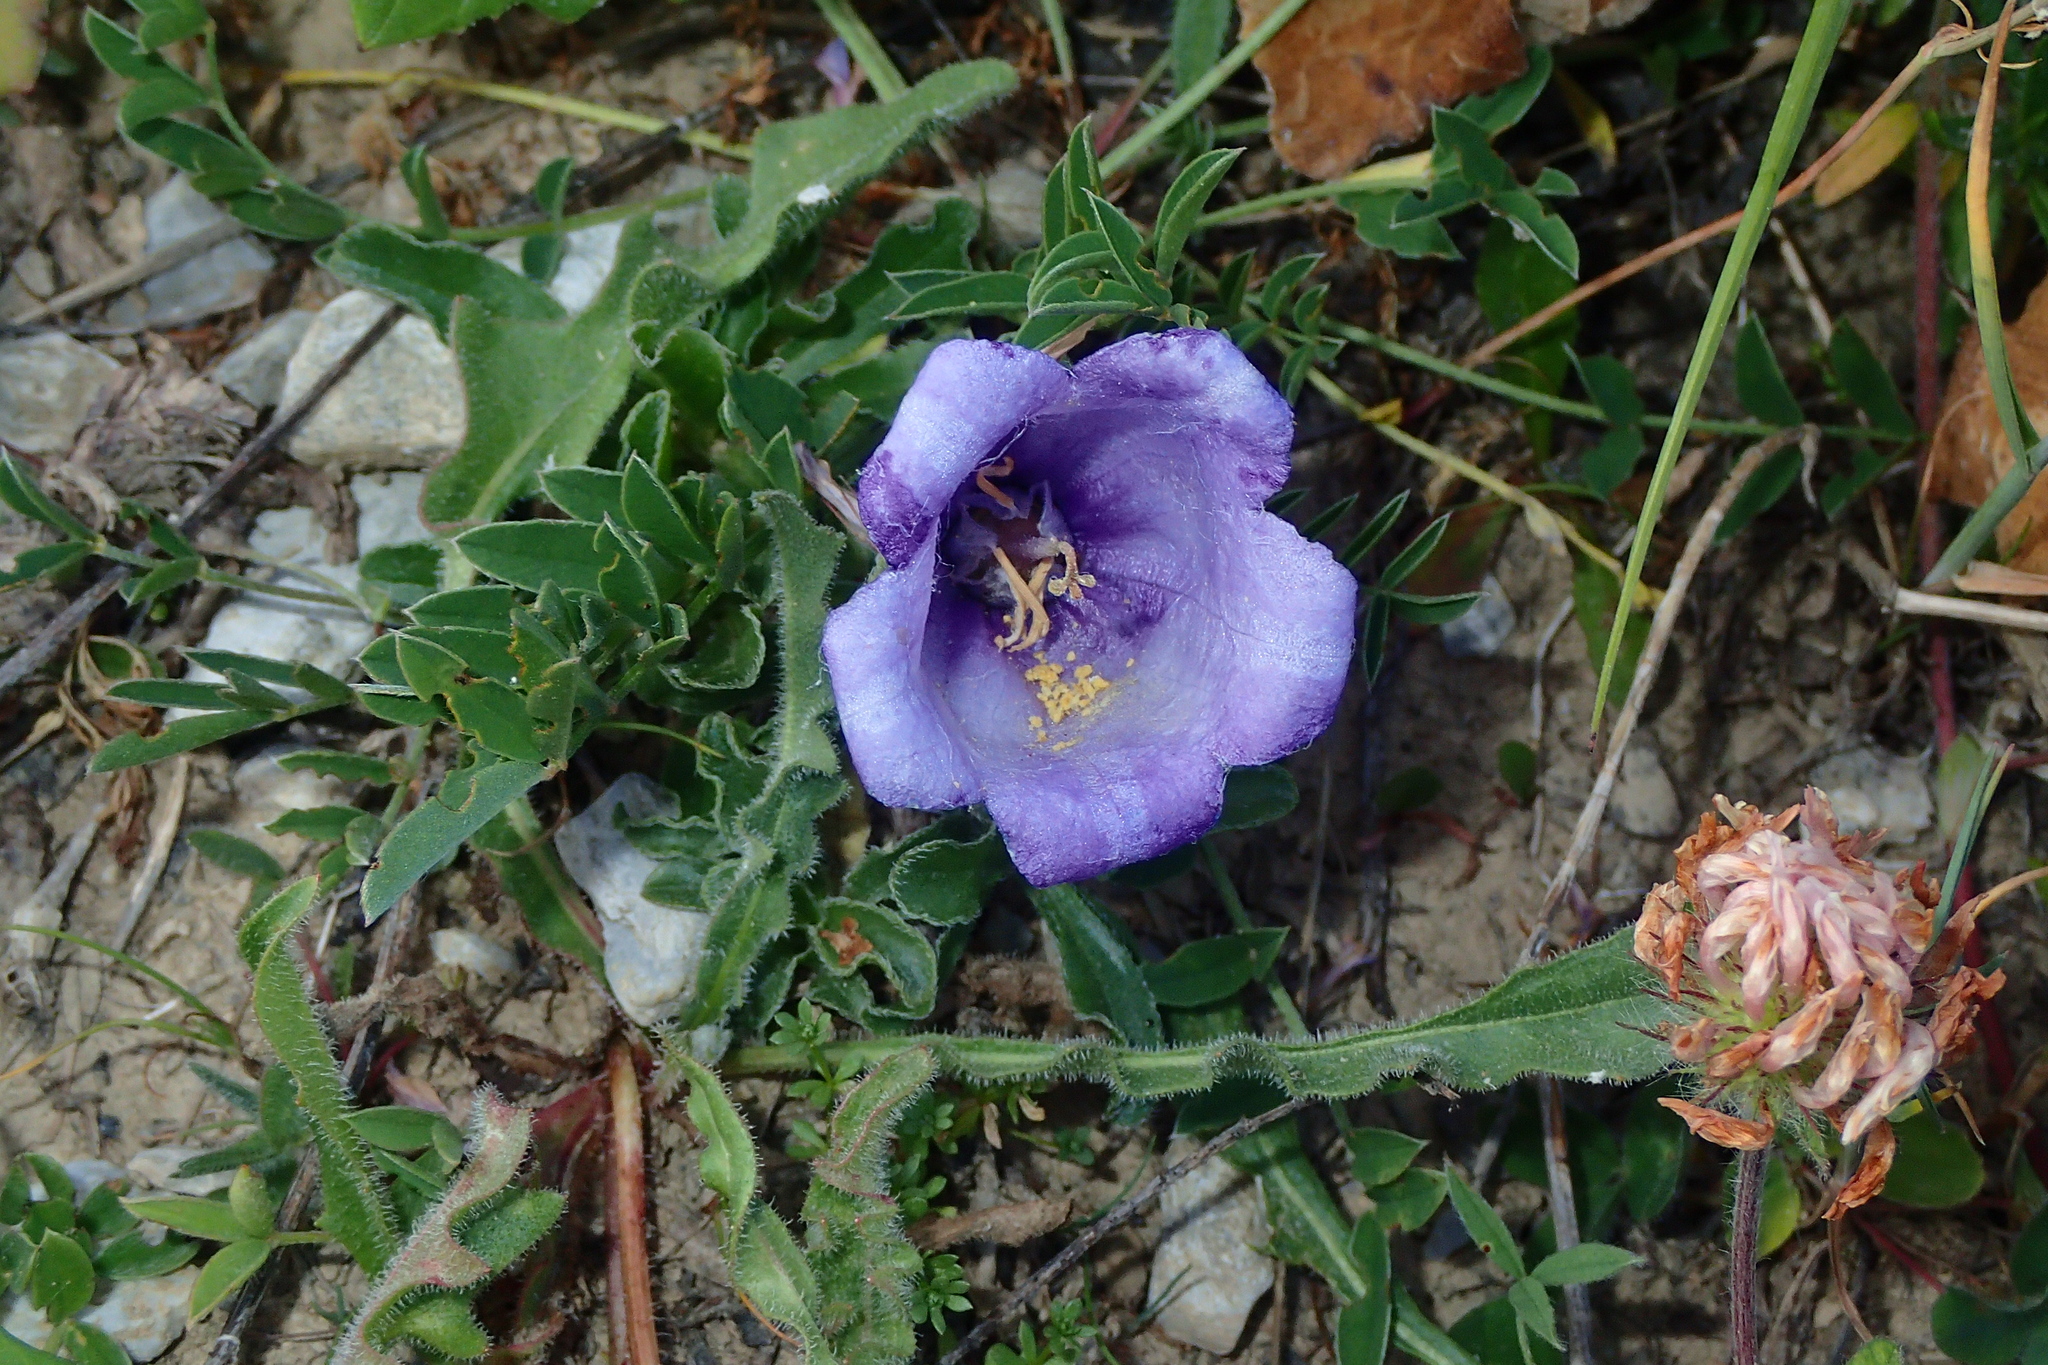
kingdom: Plantae
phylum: Tracheophyta
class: Magnoliopsida
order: Asterales
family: Campanulaceae
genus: Campanula
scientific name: Campanula alpestris
